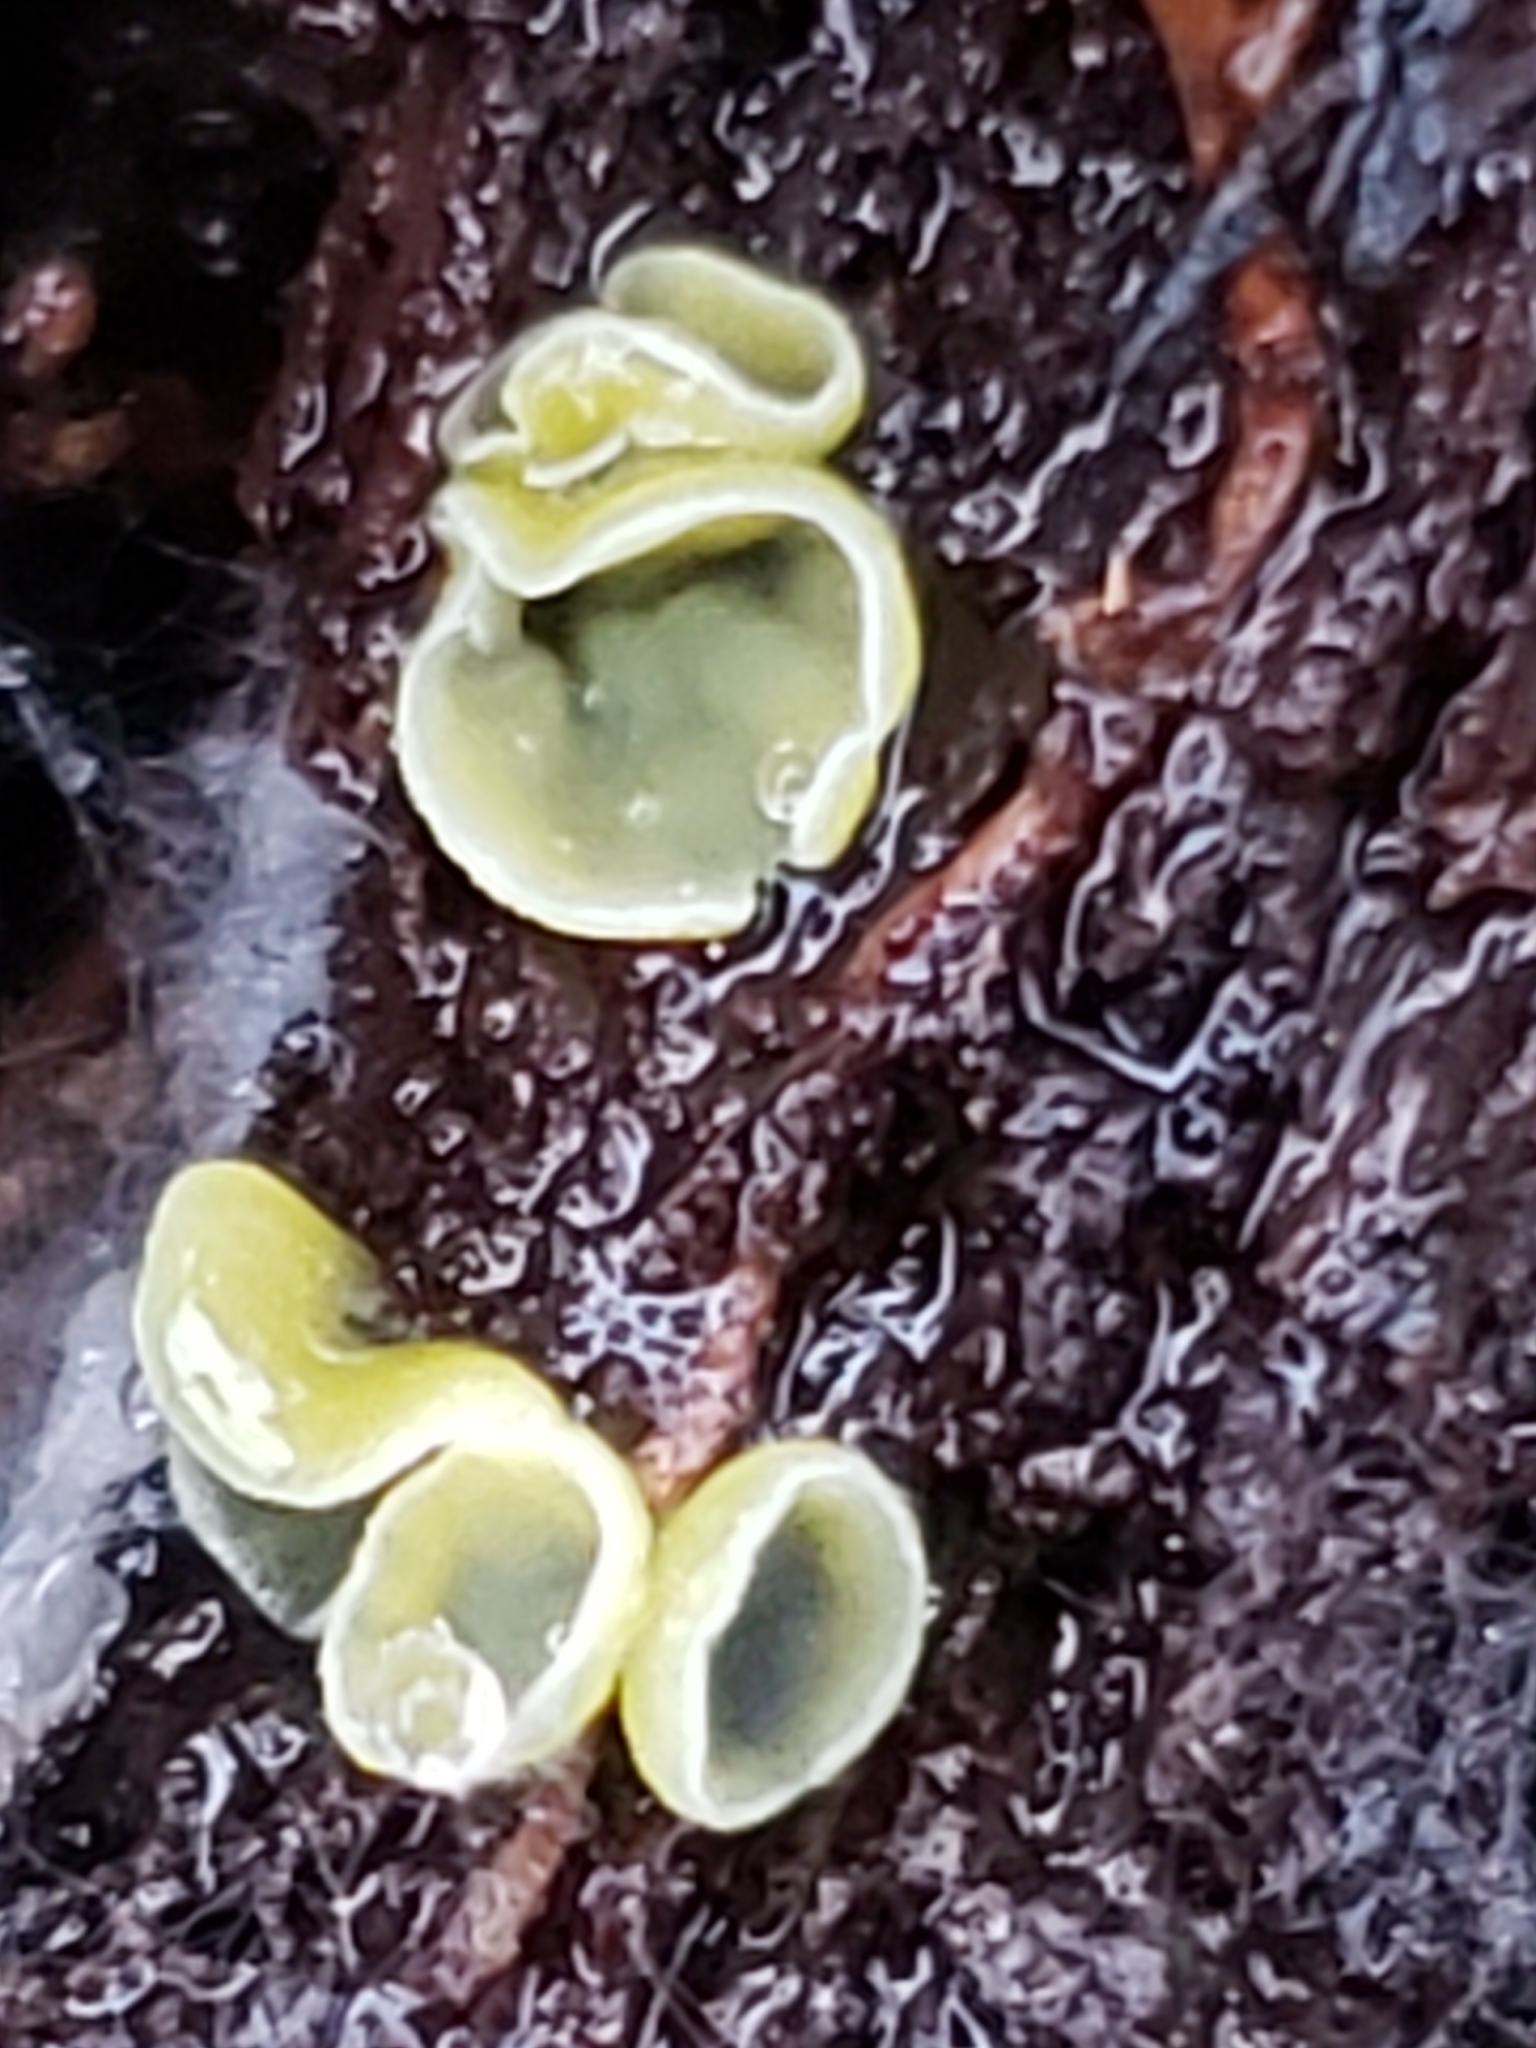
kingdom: Fungi
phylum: Ascomycota
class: Leotiomycetes
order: Helotiales
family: Chlorospleniaceae
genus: Chlorosplenium
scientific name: Chlorosplenium chlora
